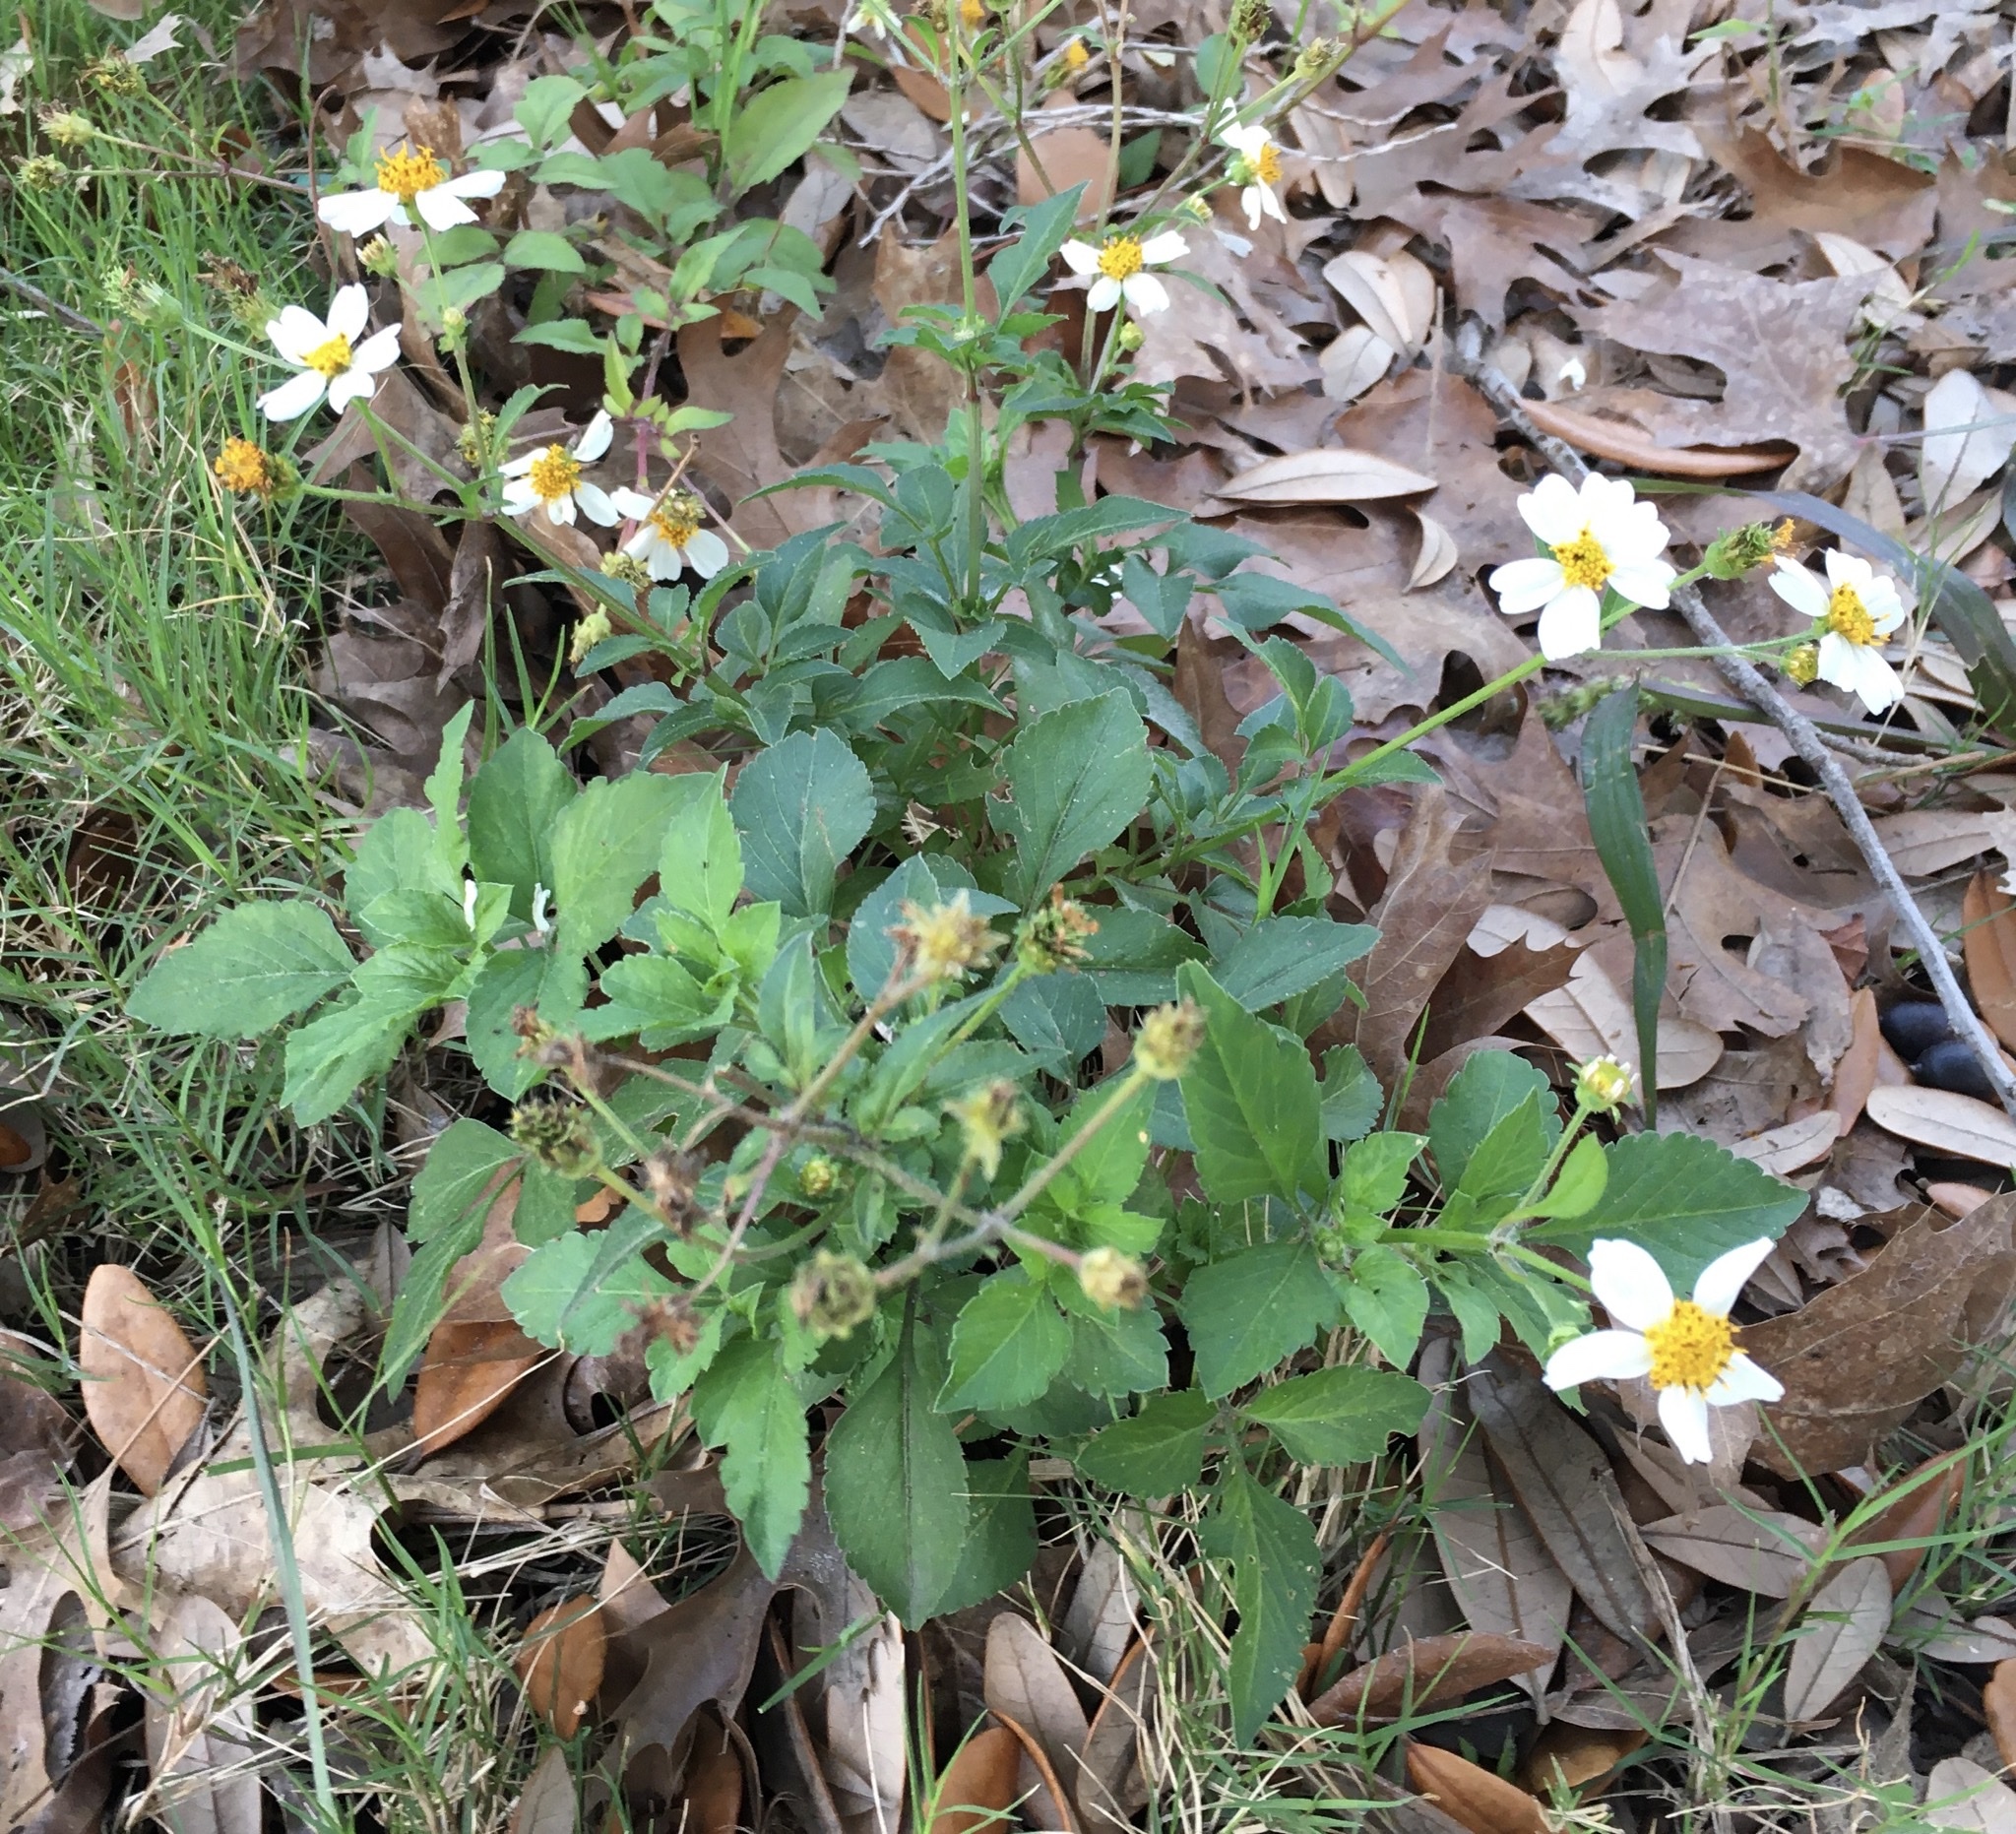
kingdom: Plantae
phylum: Tracheophyta
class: Magnoliopsida
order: Asterales
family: Asteraceae
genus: Bidens
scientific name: Bidens alba
